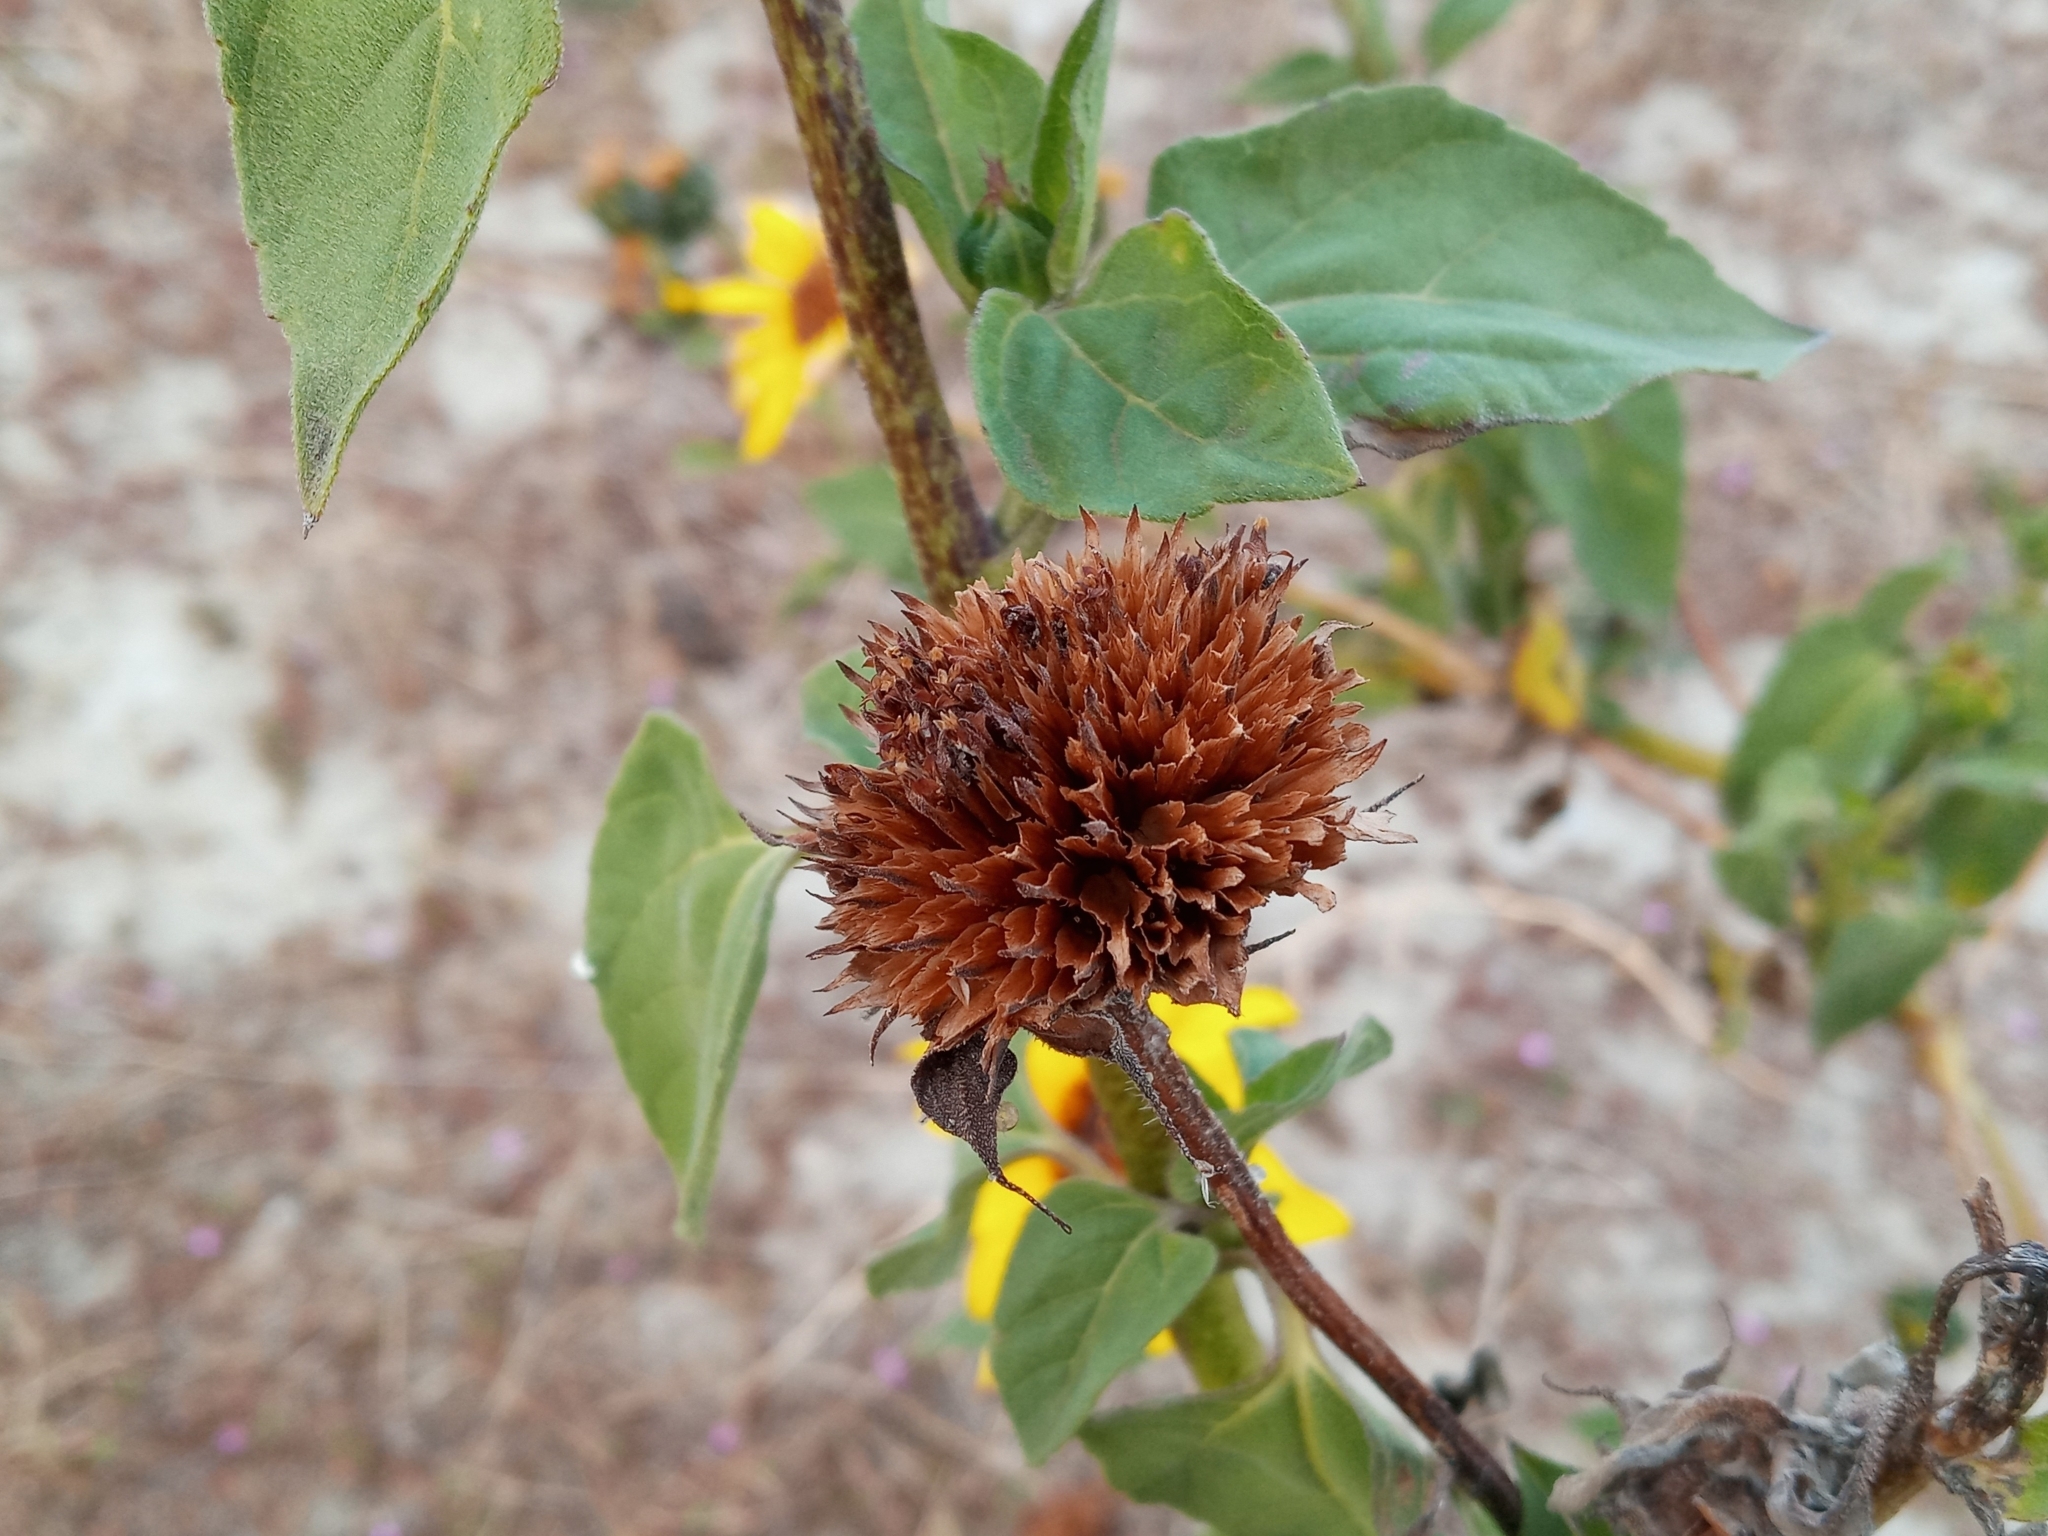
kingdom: Plantae
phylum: Tracheophyta
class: Magnoliopsida
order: Asterales
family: Asteraceae
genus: Helianthus
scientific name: Helianthus annuus
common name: Sunflower
